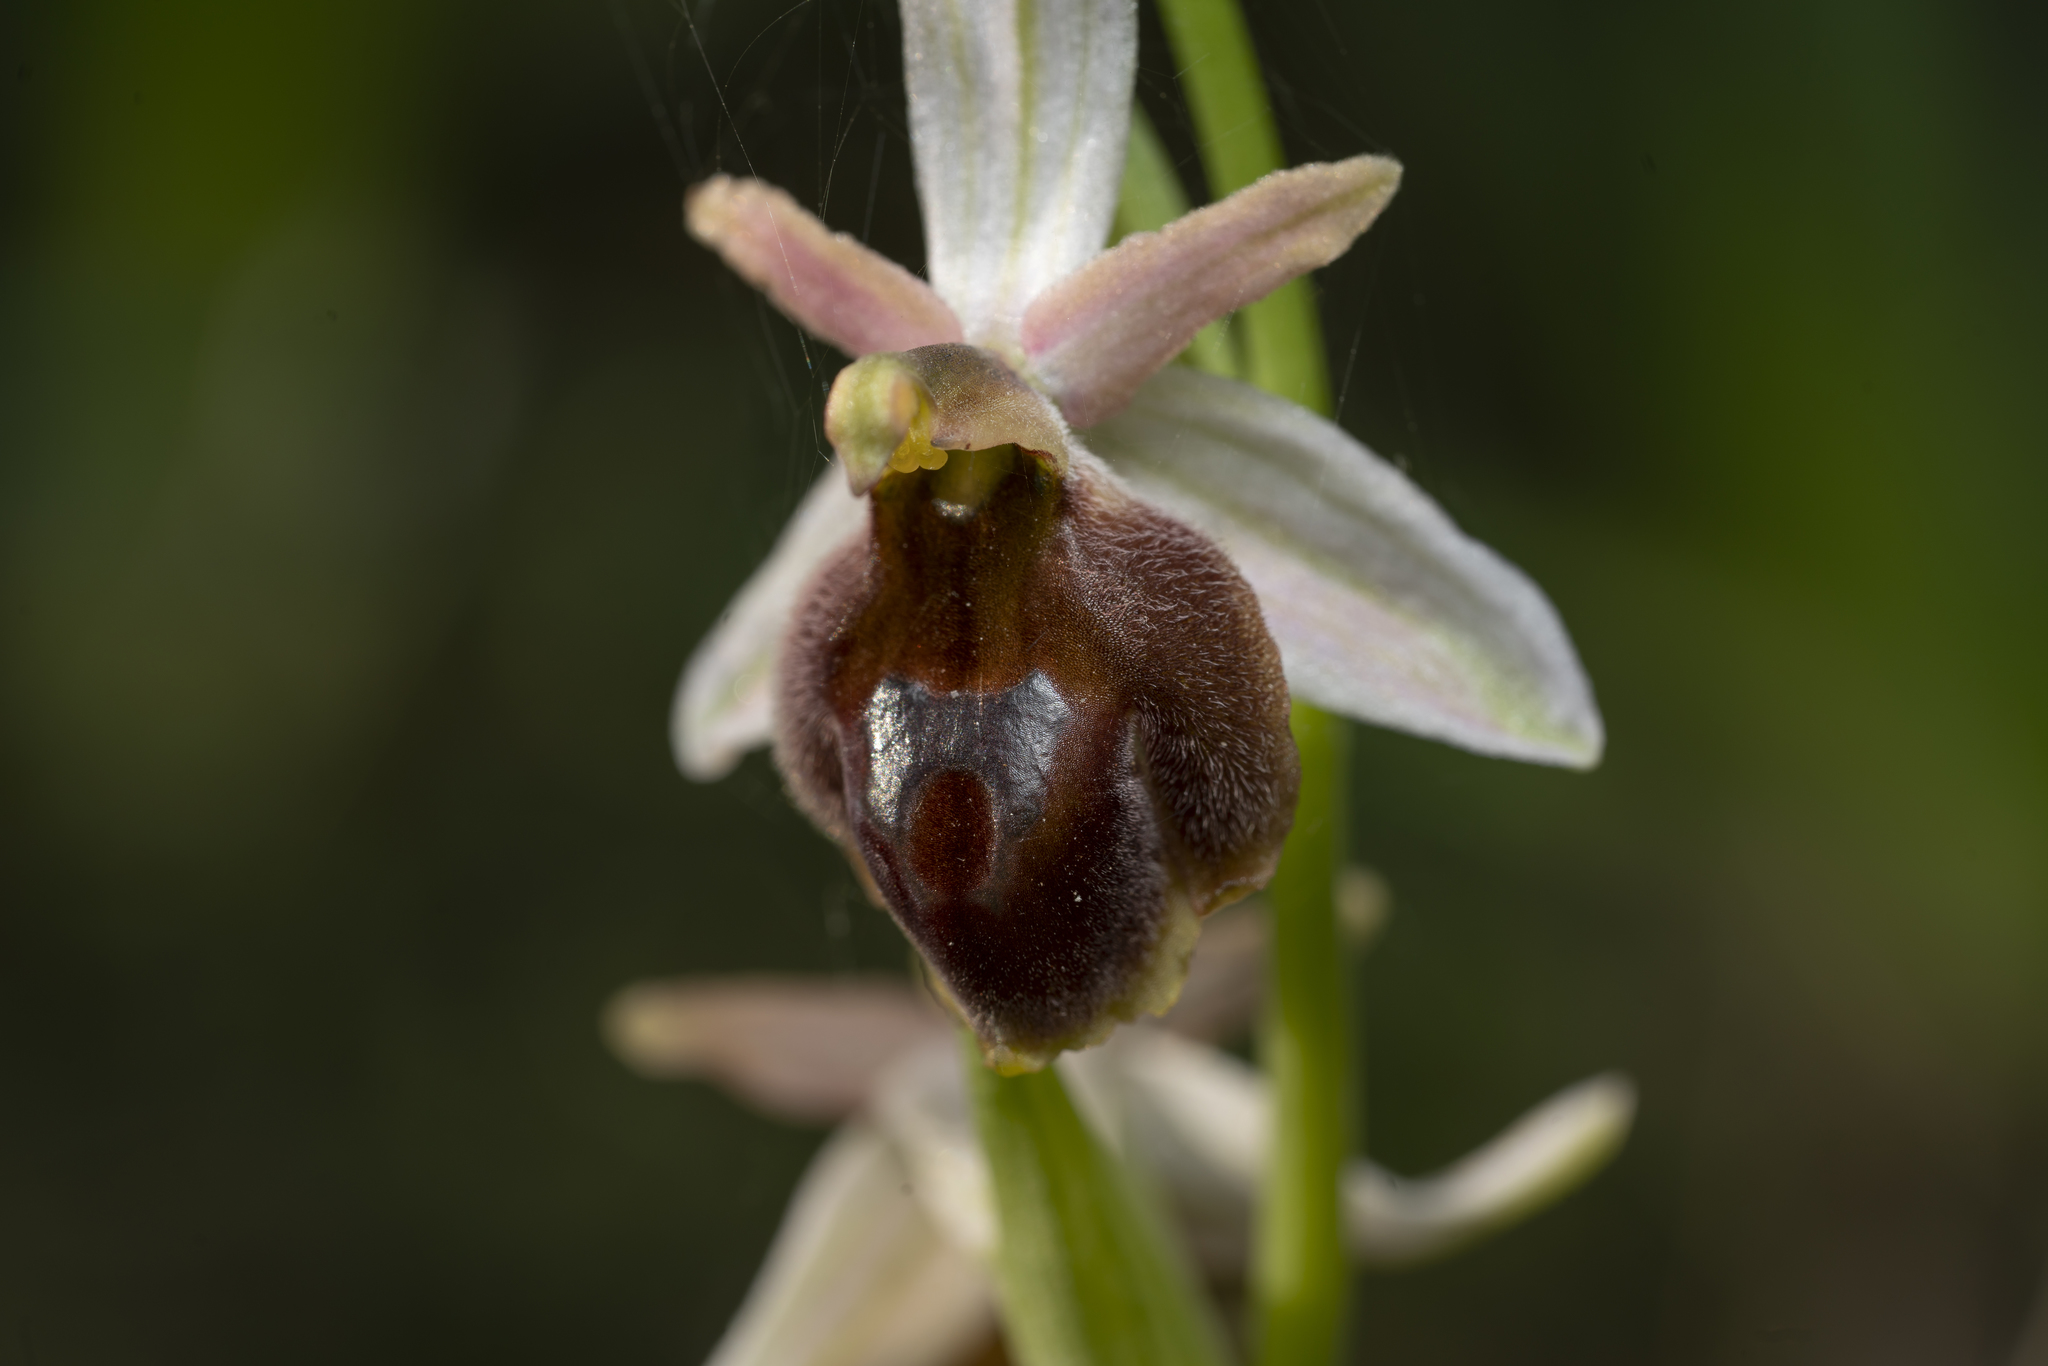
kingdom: Plantae
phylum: Tracheophyta
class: Liliopsida
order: Asparagales
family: Orchidaceae
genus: Ophrys
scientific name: Ophrys argolica
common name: Argolic ophrys
